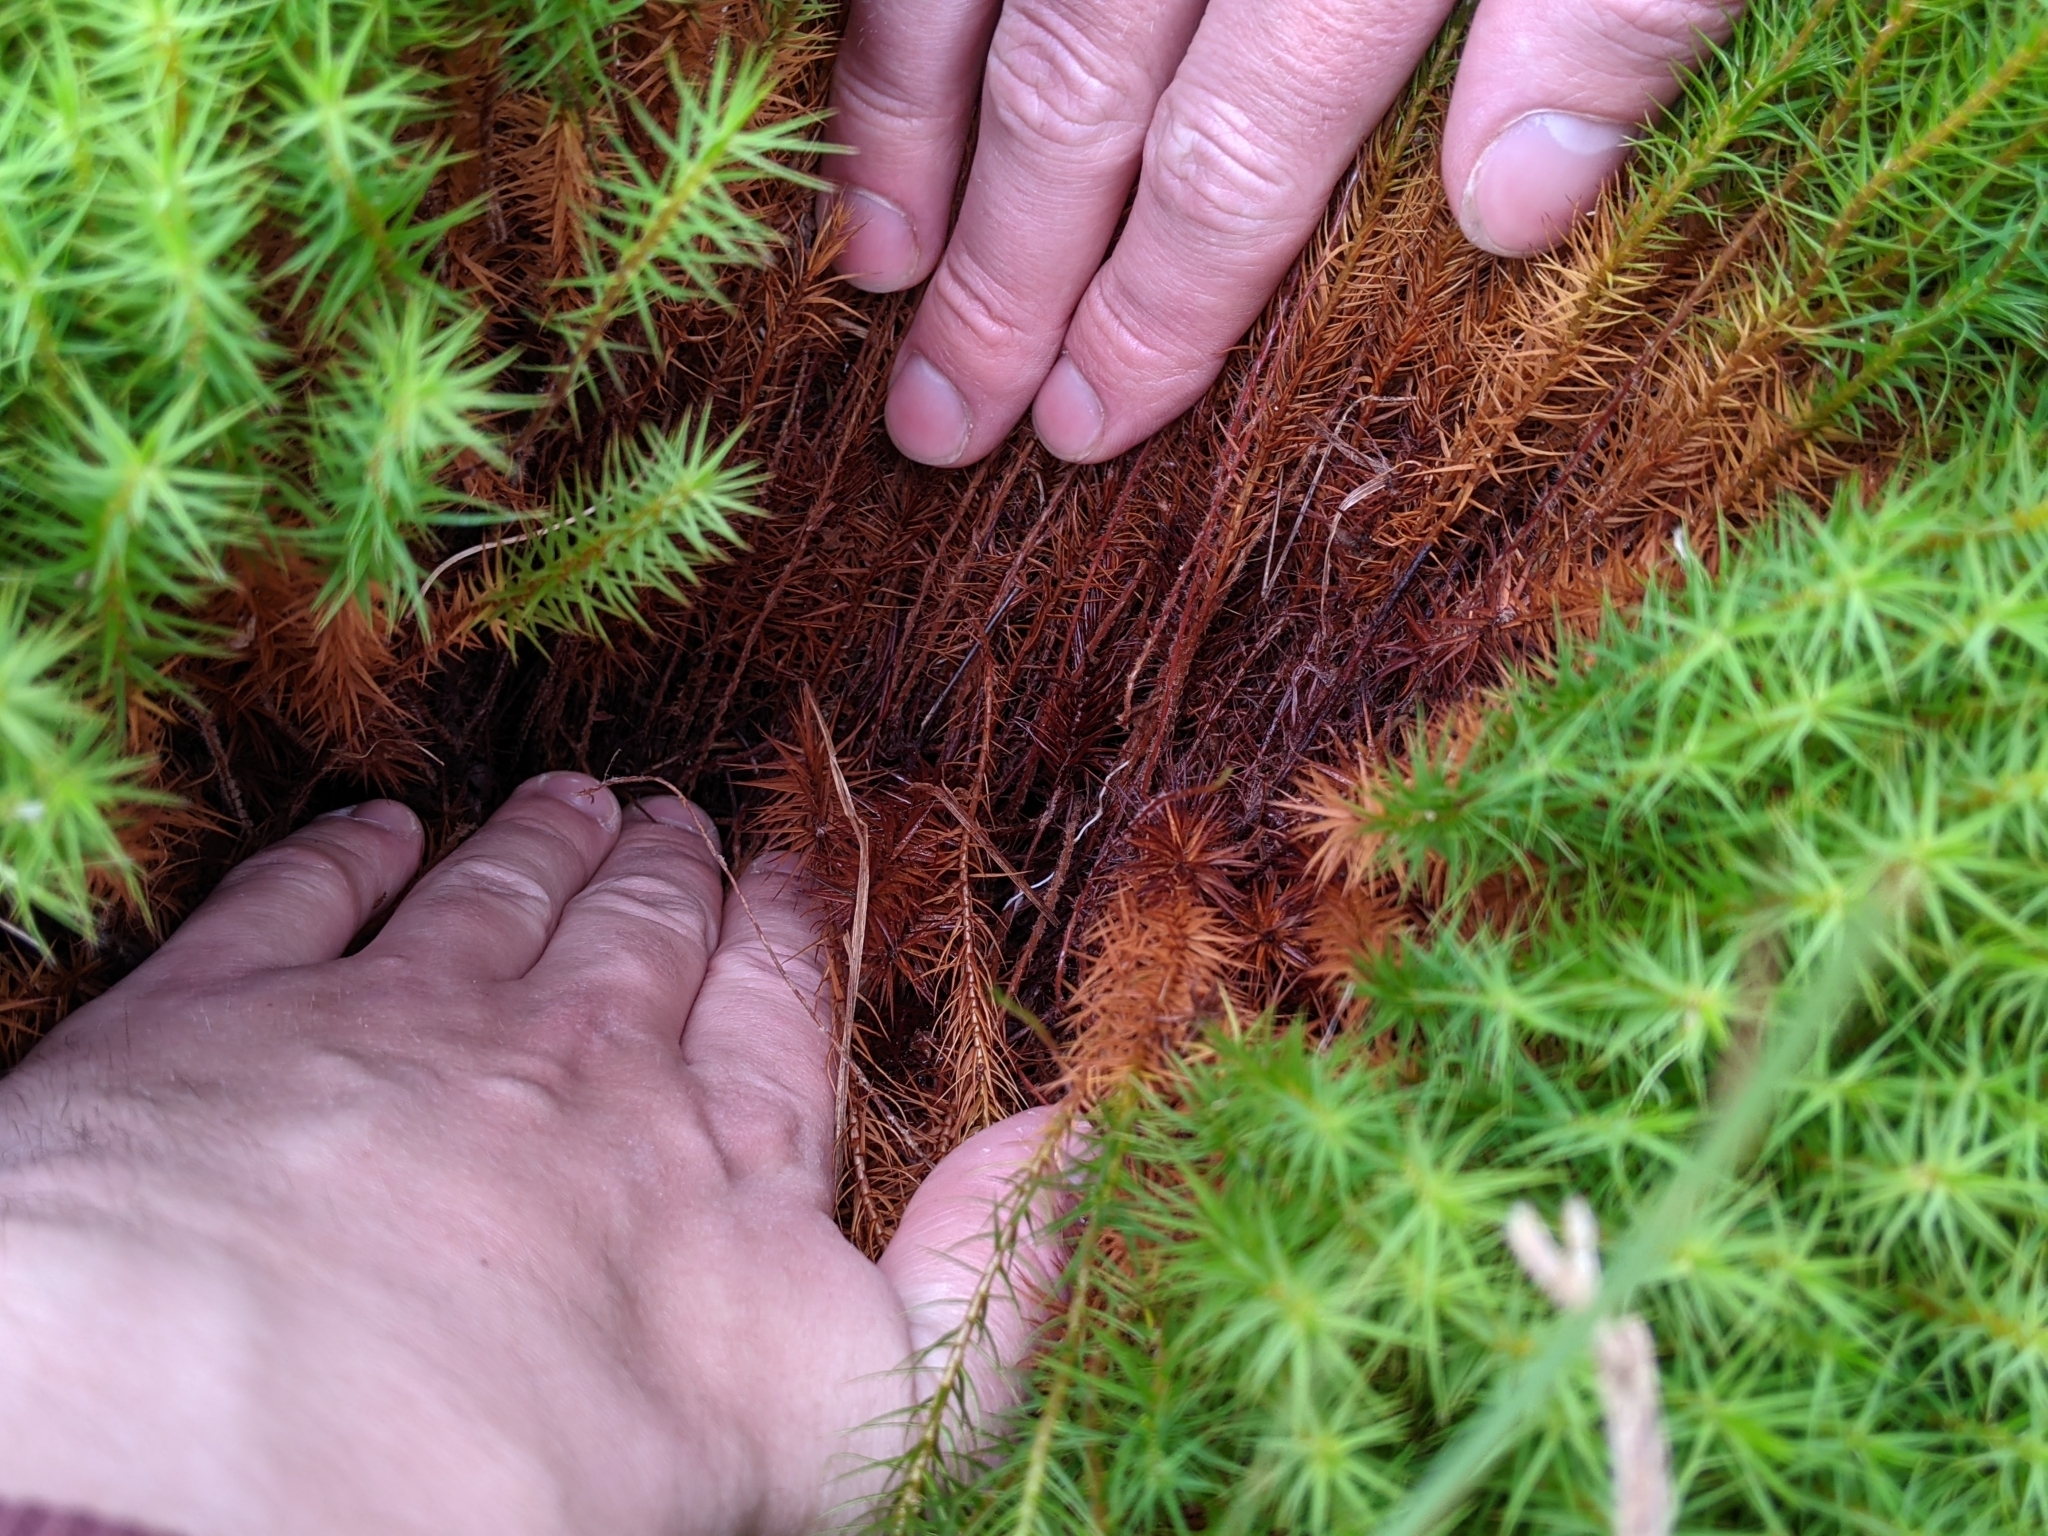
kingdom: Plantae
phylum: Bryophyta
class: Polytrichopsida
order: Polytrichales
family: Polytrichaceae
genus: Polytrichum
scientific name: Polytrichum commune
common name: Common haircap
